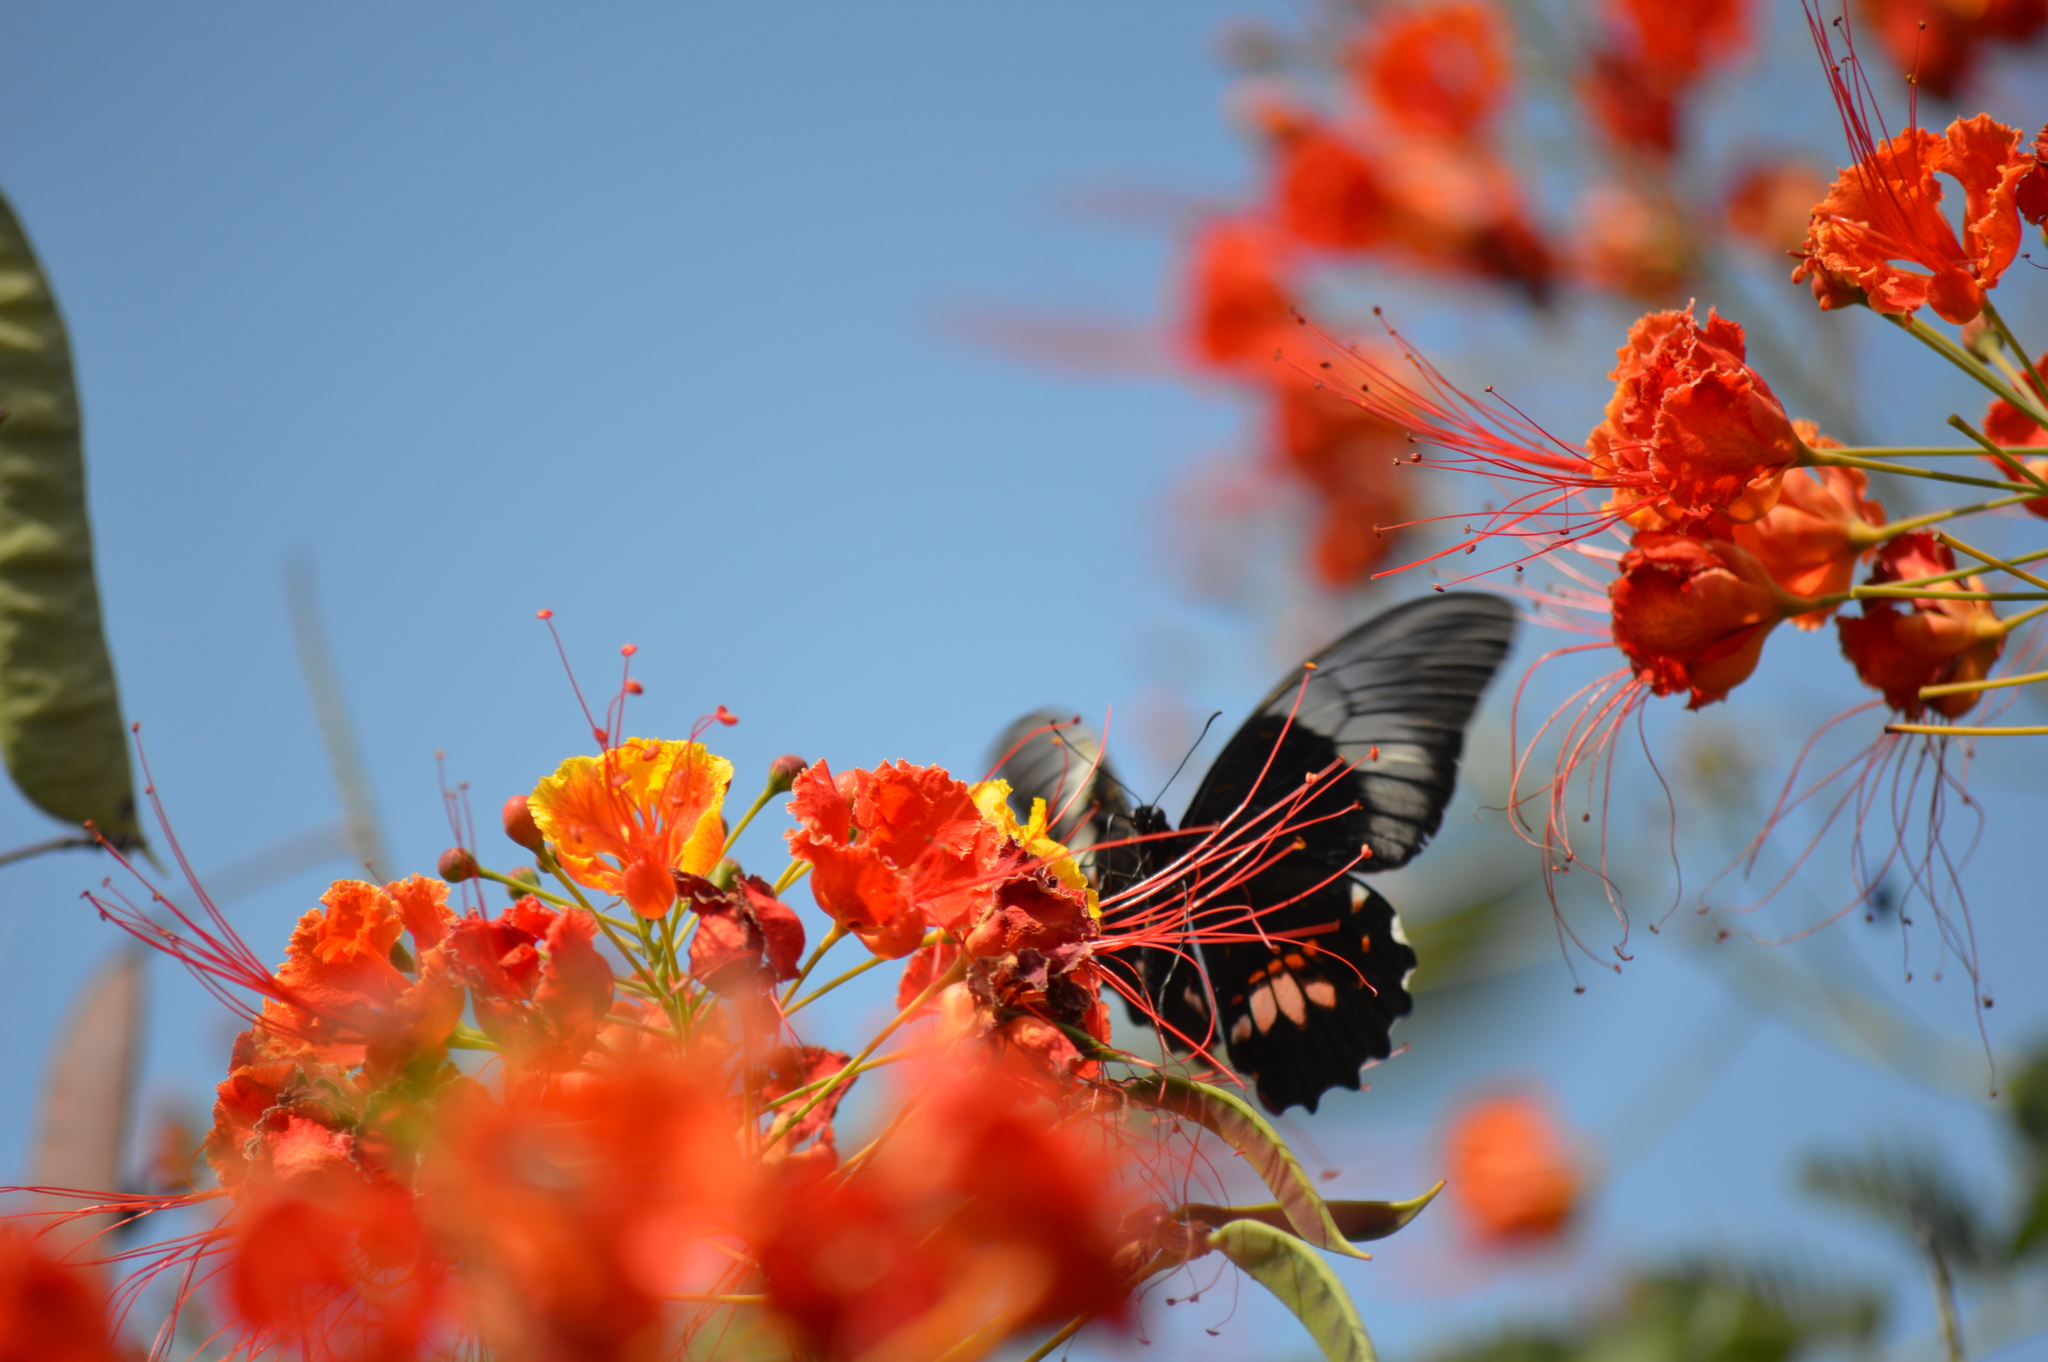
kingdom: Animalia
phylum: Arthropoda
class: Insecta
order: Lepidoptera
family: Papilionidae
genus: Papilio
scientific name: Papilio anchisiades
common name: Idaes swallowtail
